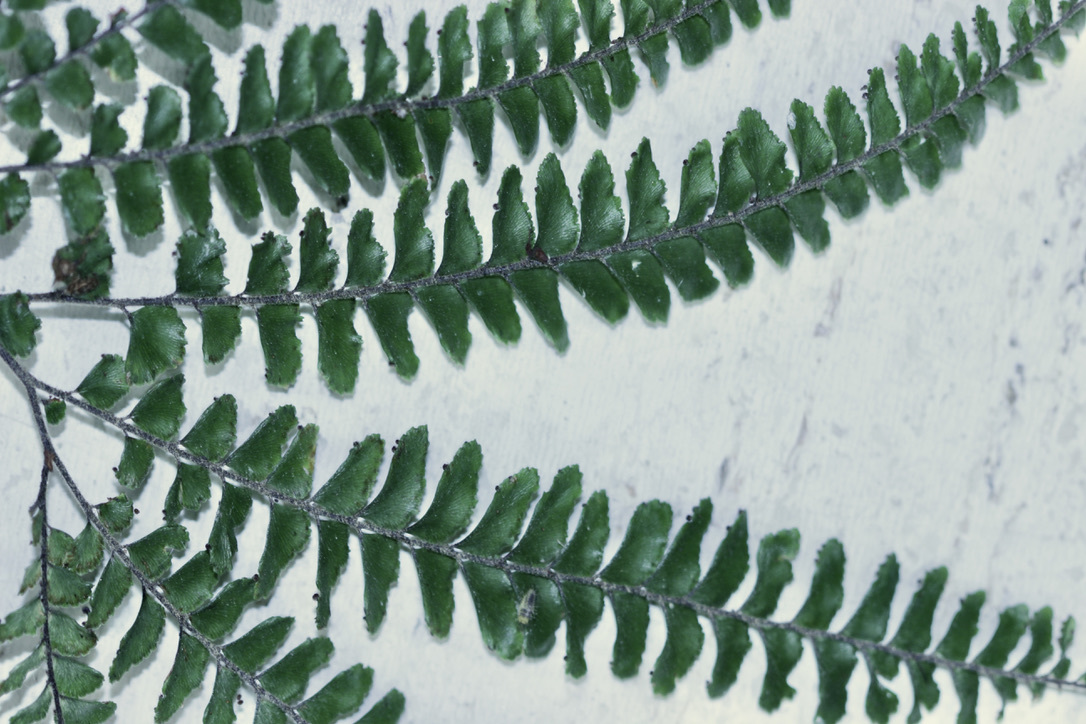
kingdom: Plantae
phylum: Tracheophyta
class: Polypodiopsida
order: Polypodiales
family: Pteridaceae
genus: Adiantum
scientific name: Adiantum hispidulum
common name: Rough maidenhair
